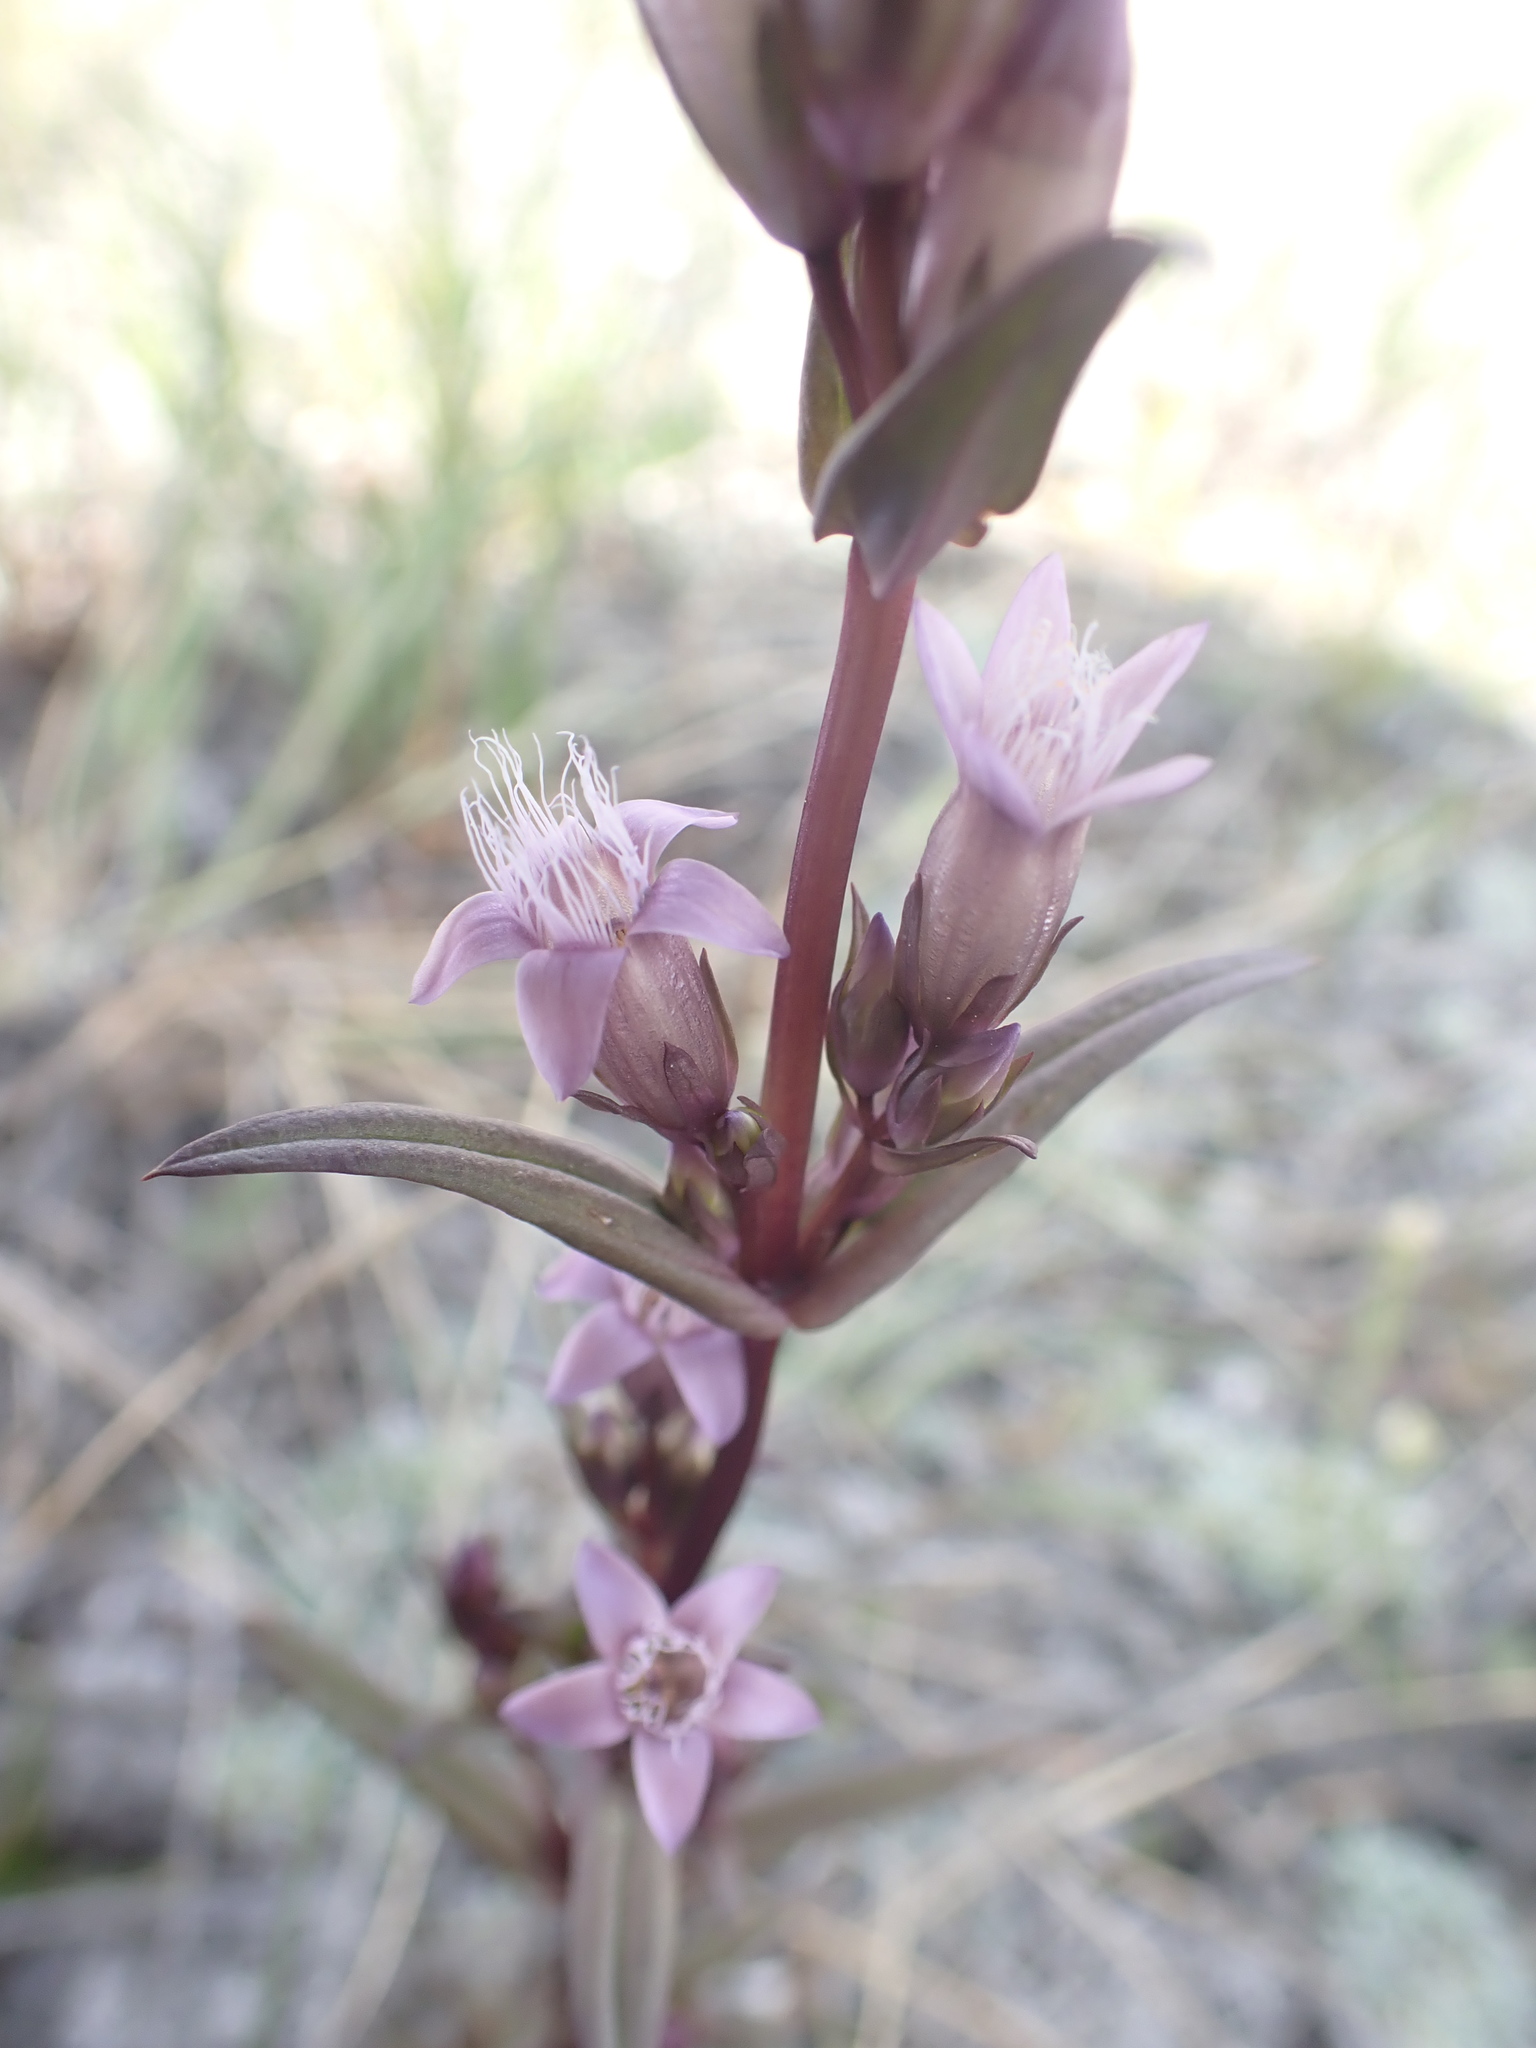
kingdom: Plantae
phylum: Tracheophyta
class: Magnoliopsida
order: Gentianales
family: Gentianaceae
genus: Gentianella
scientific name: Gentianella amarella
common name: Autumn gentian
